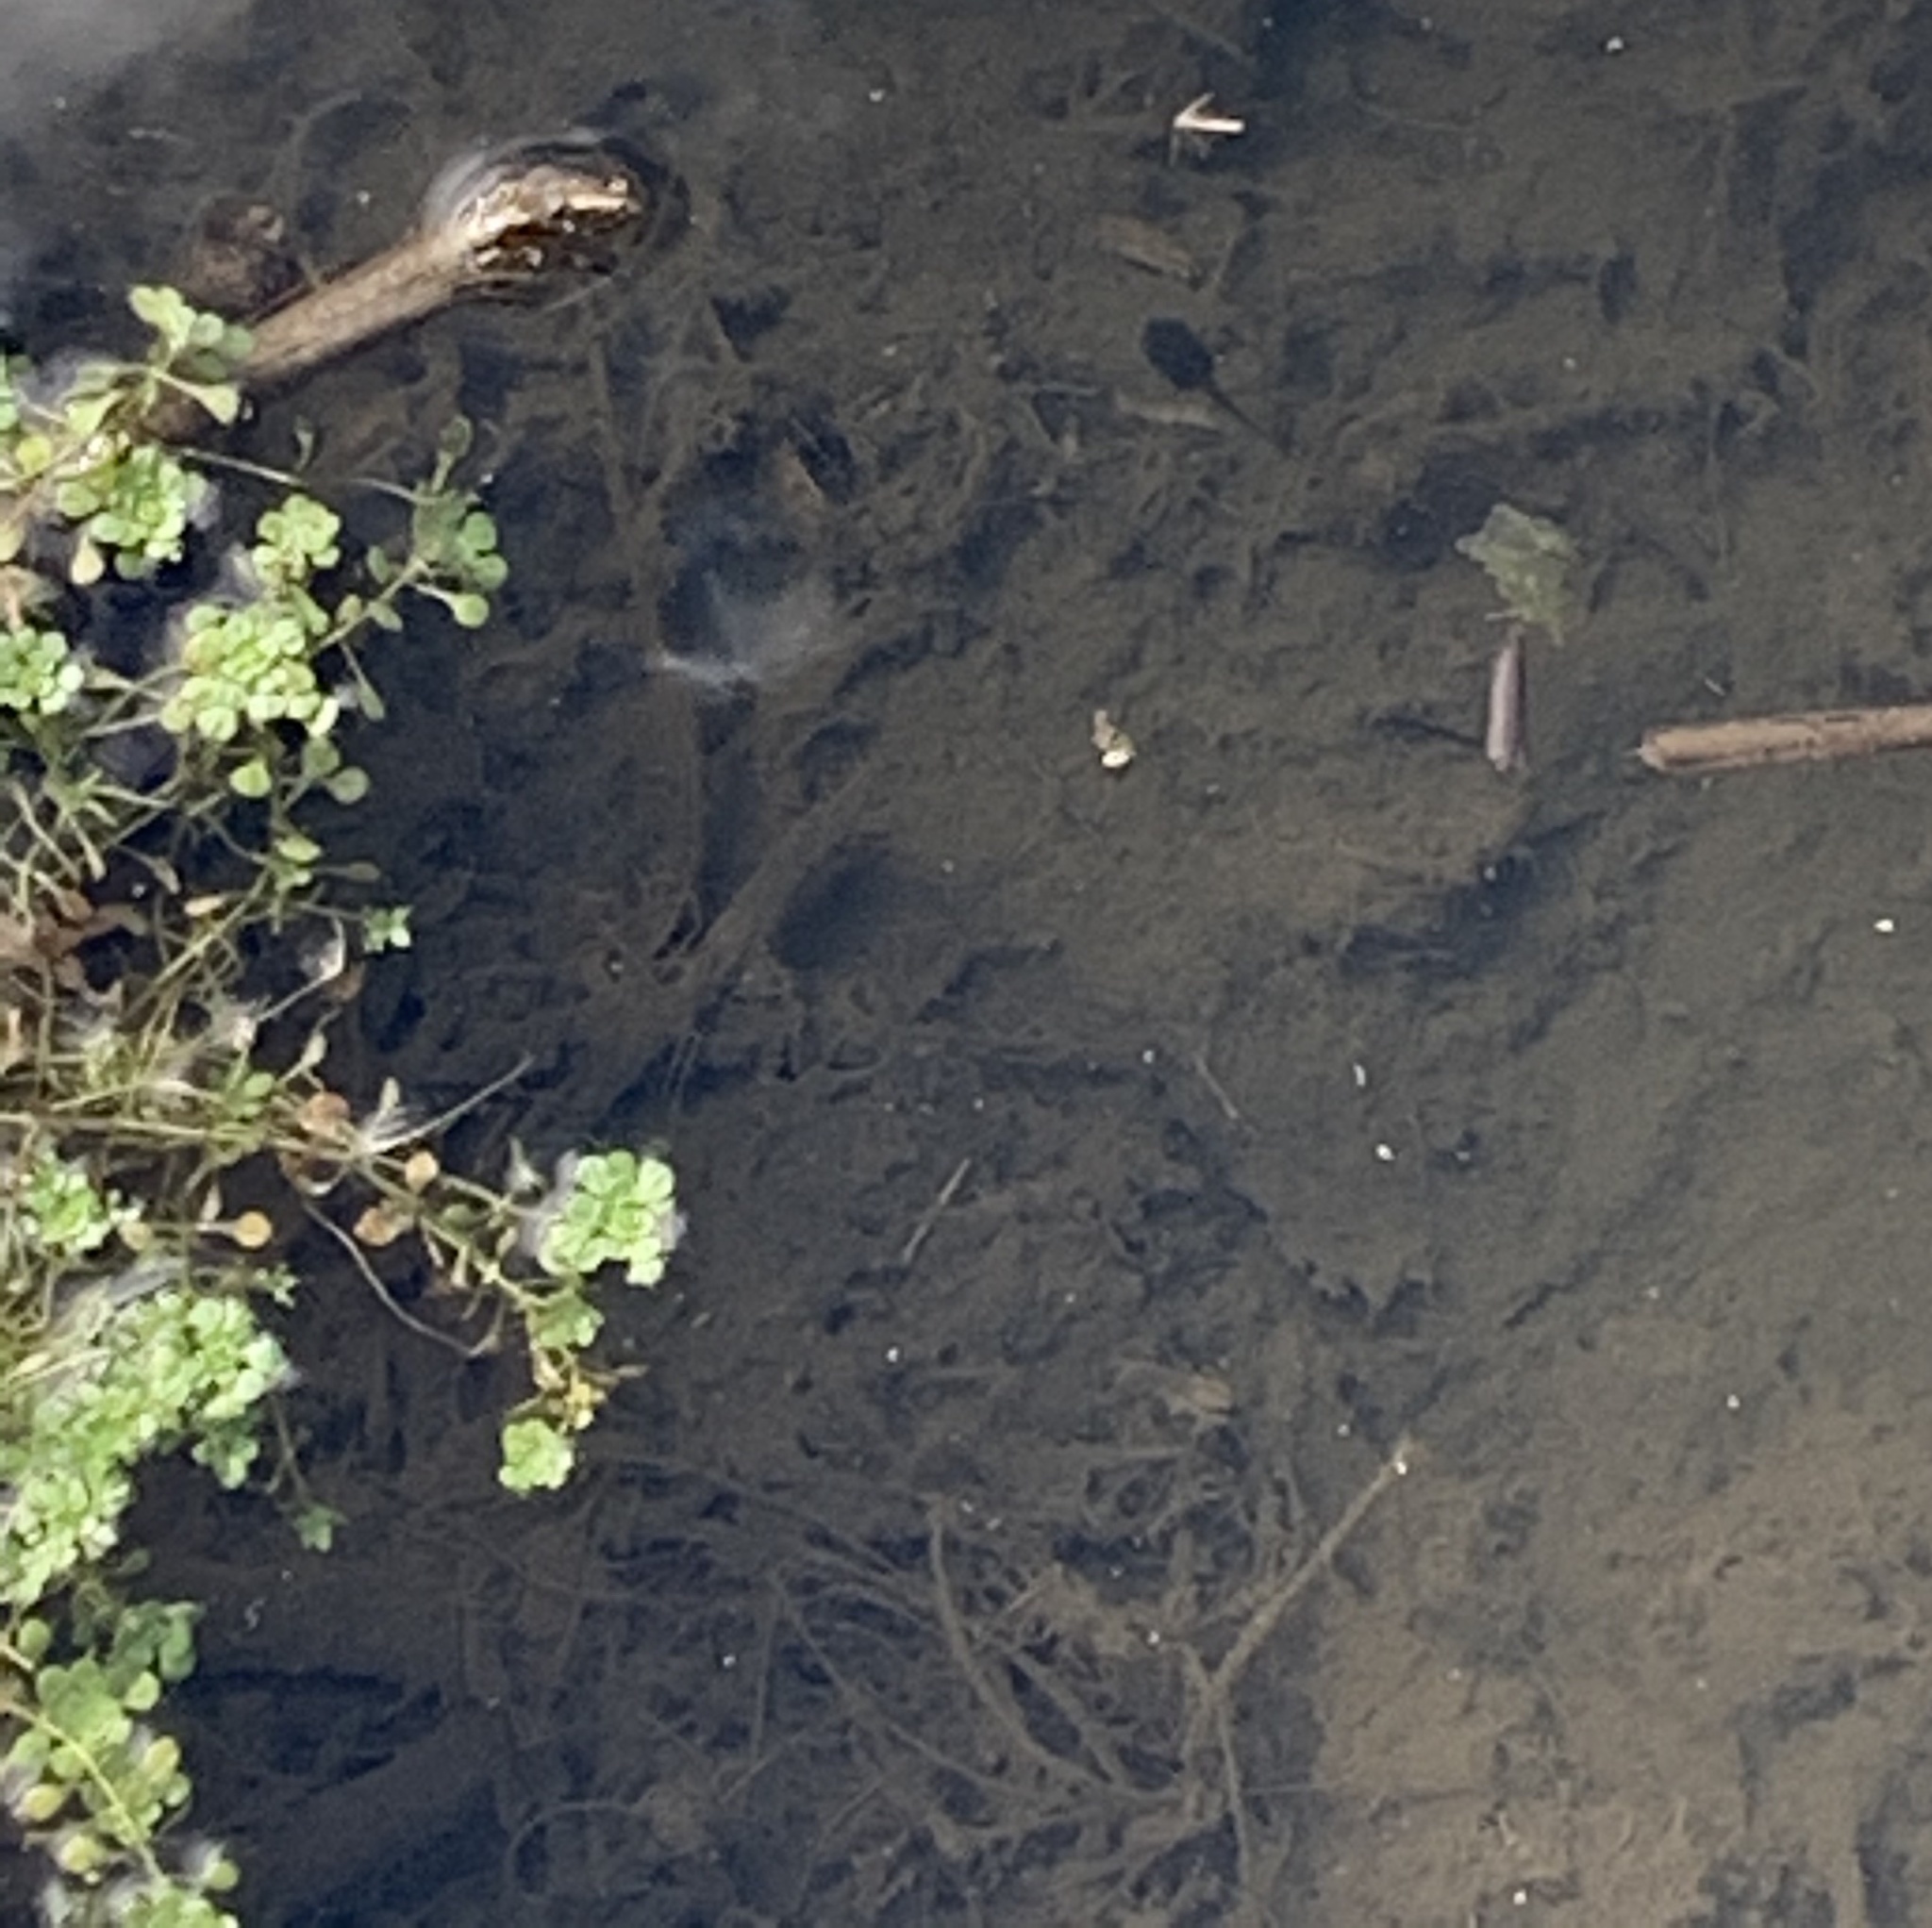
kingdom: Animalia
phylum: Chordata
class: Amphibia
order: Anura
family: Ranidae
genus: Lithobates
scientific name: Lithobates sylvaticus
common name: Wood frog
